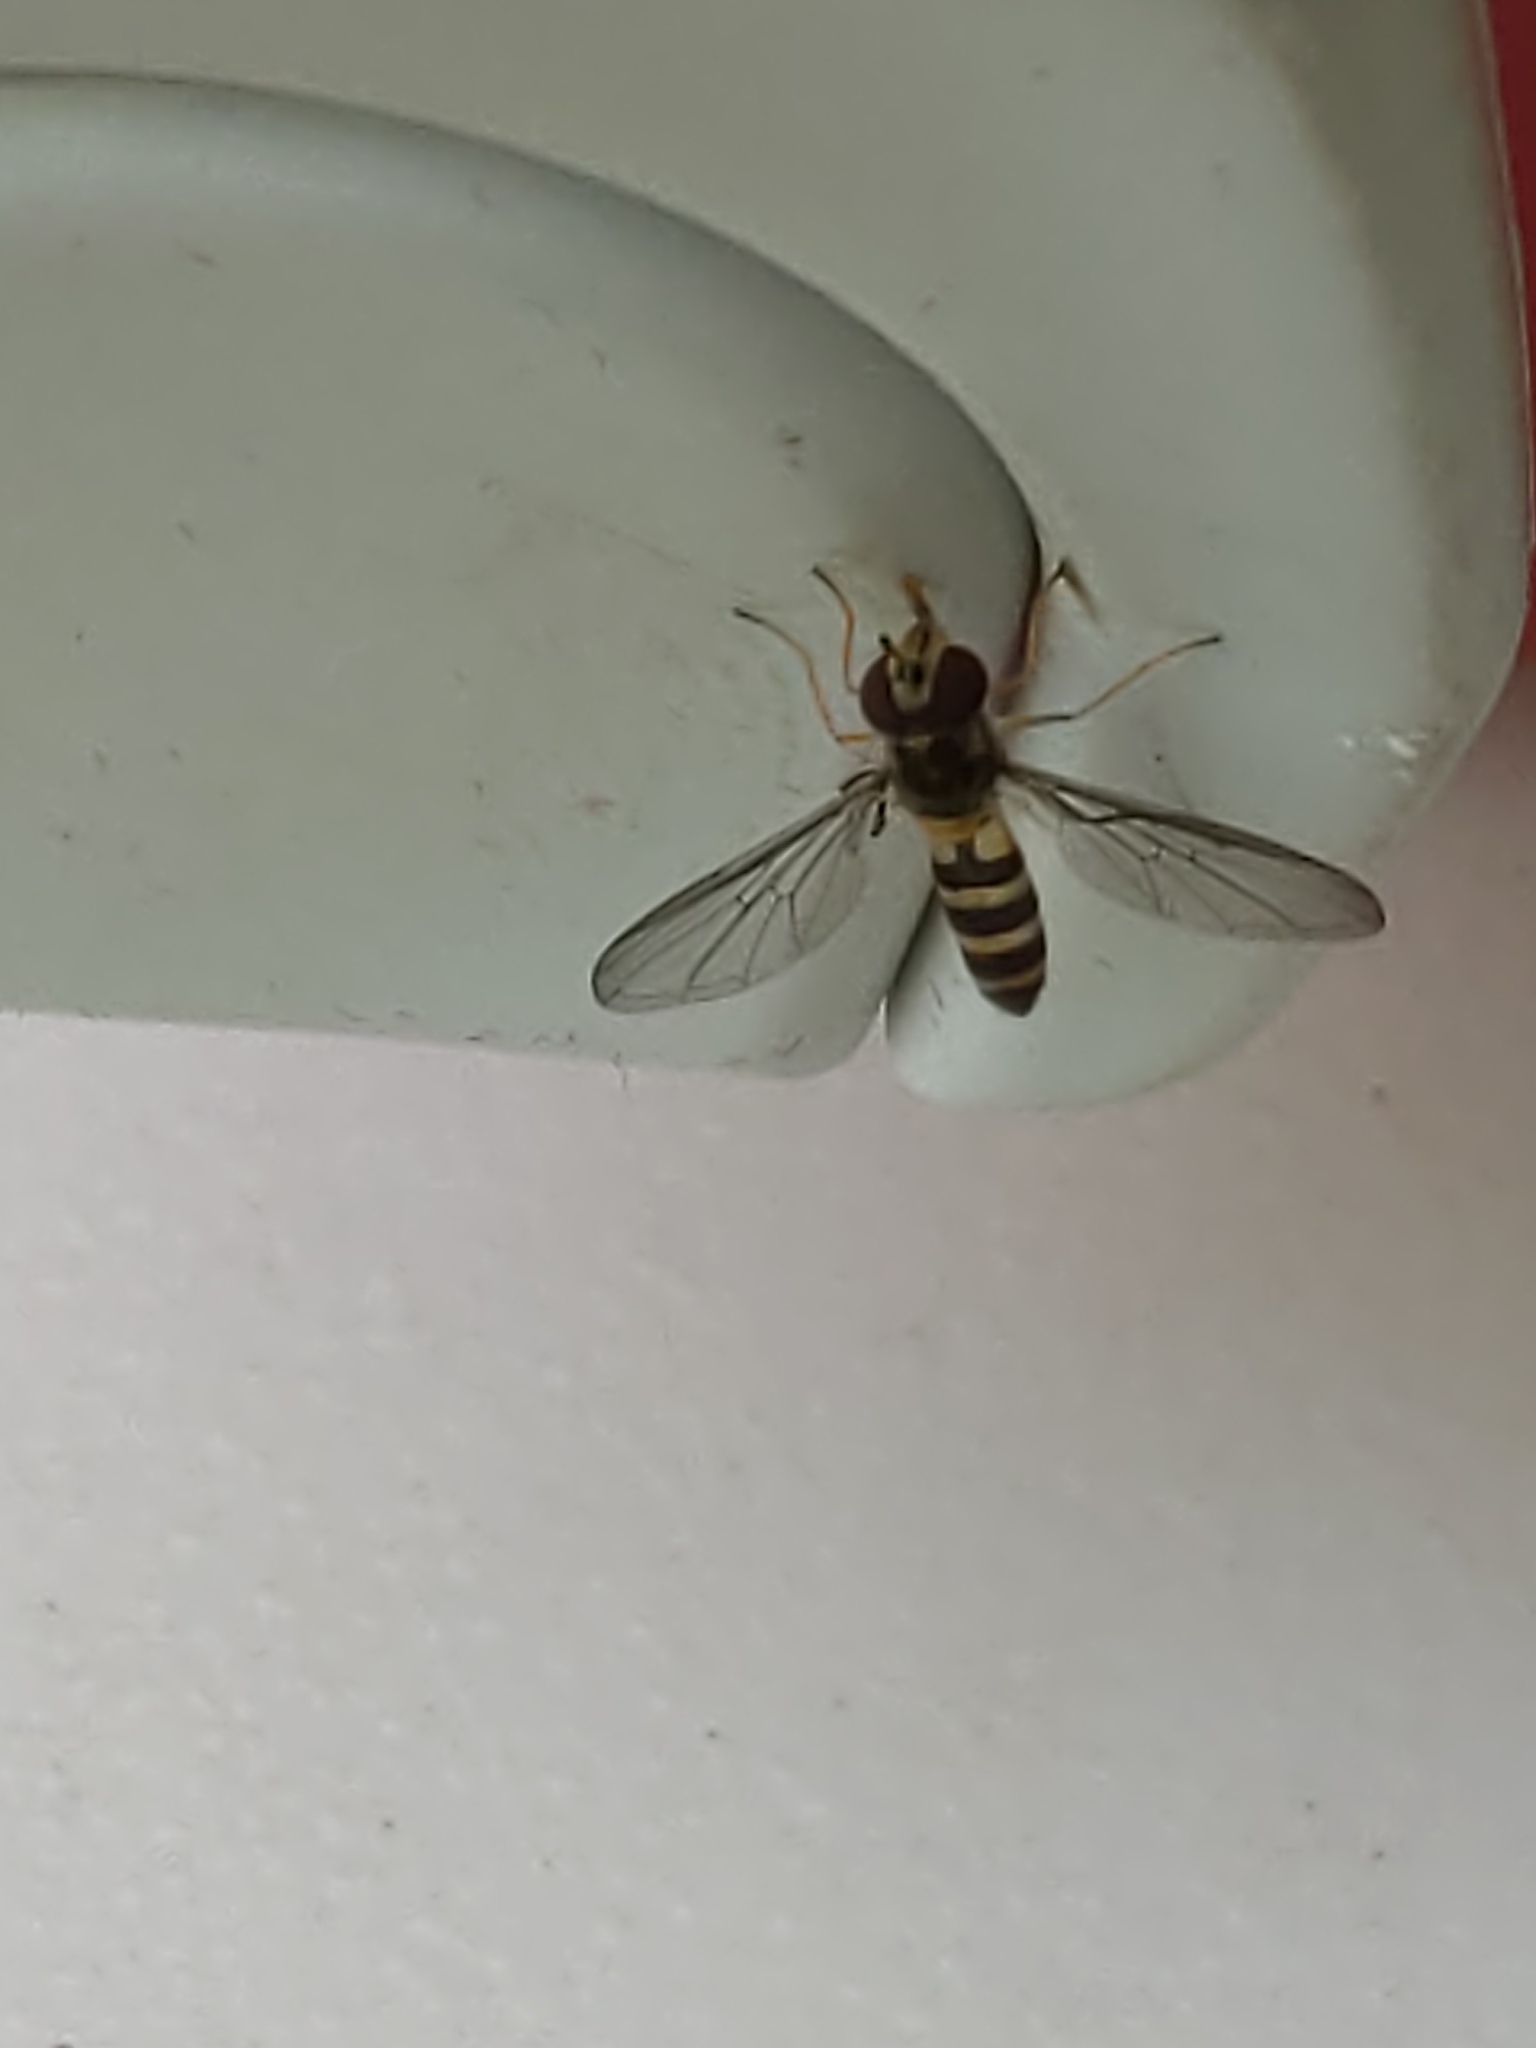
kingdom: Animalia
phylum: Arthropoda
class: Insecta
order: Diptera
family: Syrphidae
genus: Meliscaeva
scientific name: Meliscaeva cinctella
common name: American thintail fly
